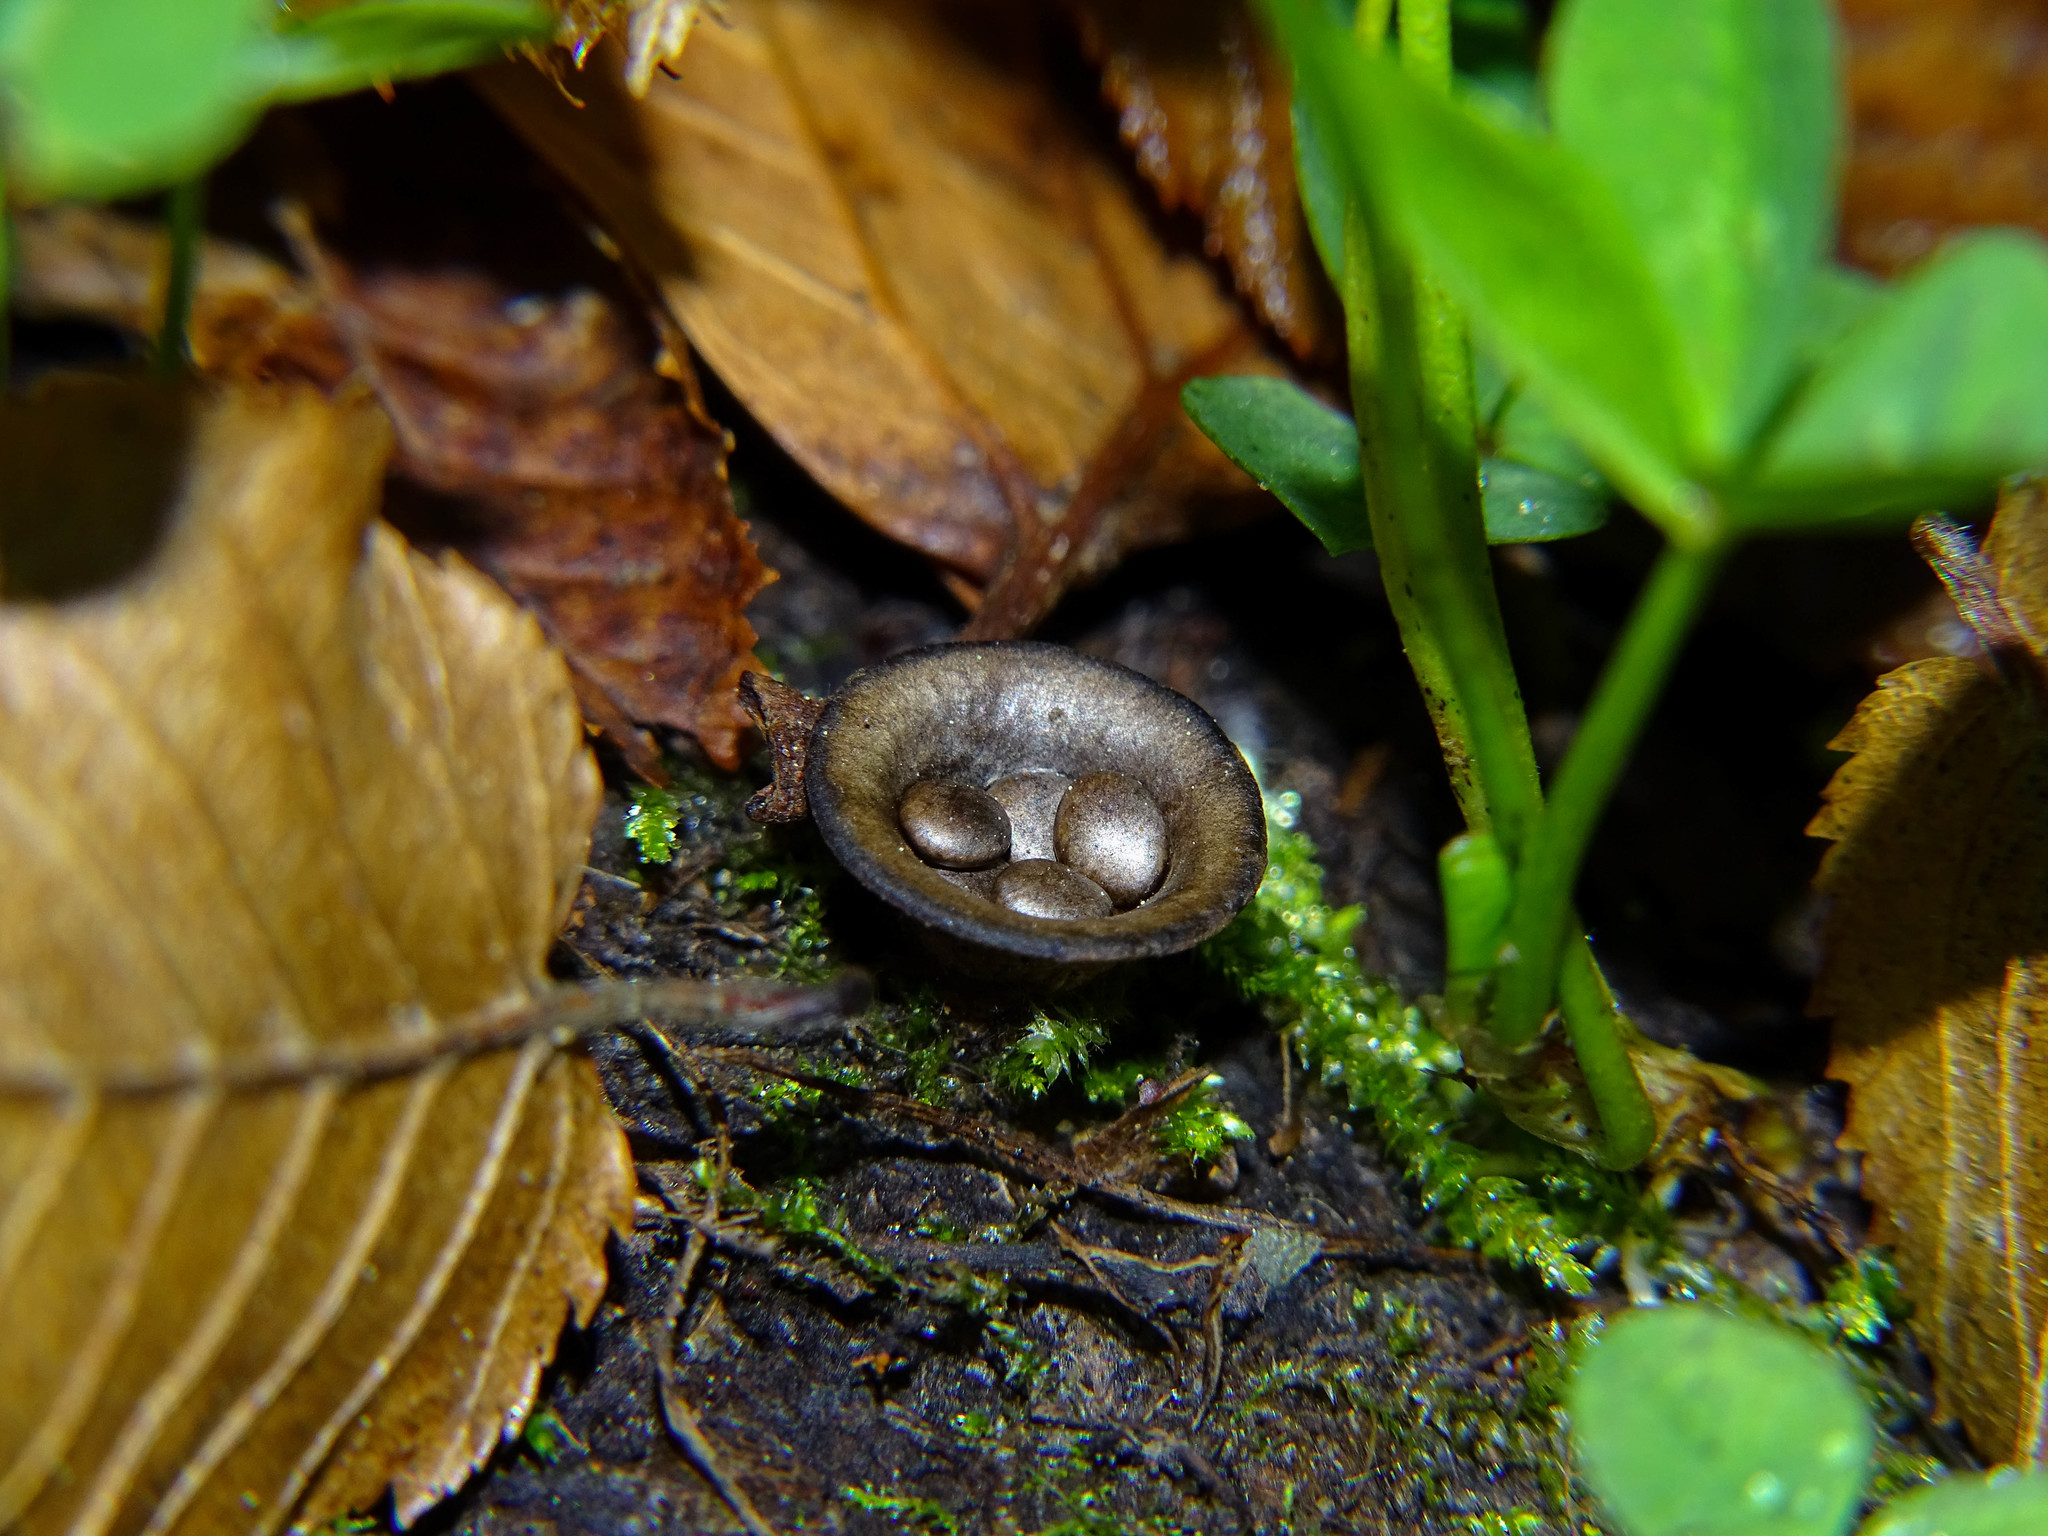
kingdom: Fungi
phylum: Basidiomycota
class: Agaricomycetes
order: Agaricales
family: Agaricaceae
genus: Cyathus
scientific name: Cyathus olla
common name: Field bird's nest
